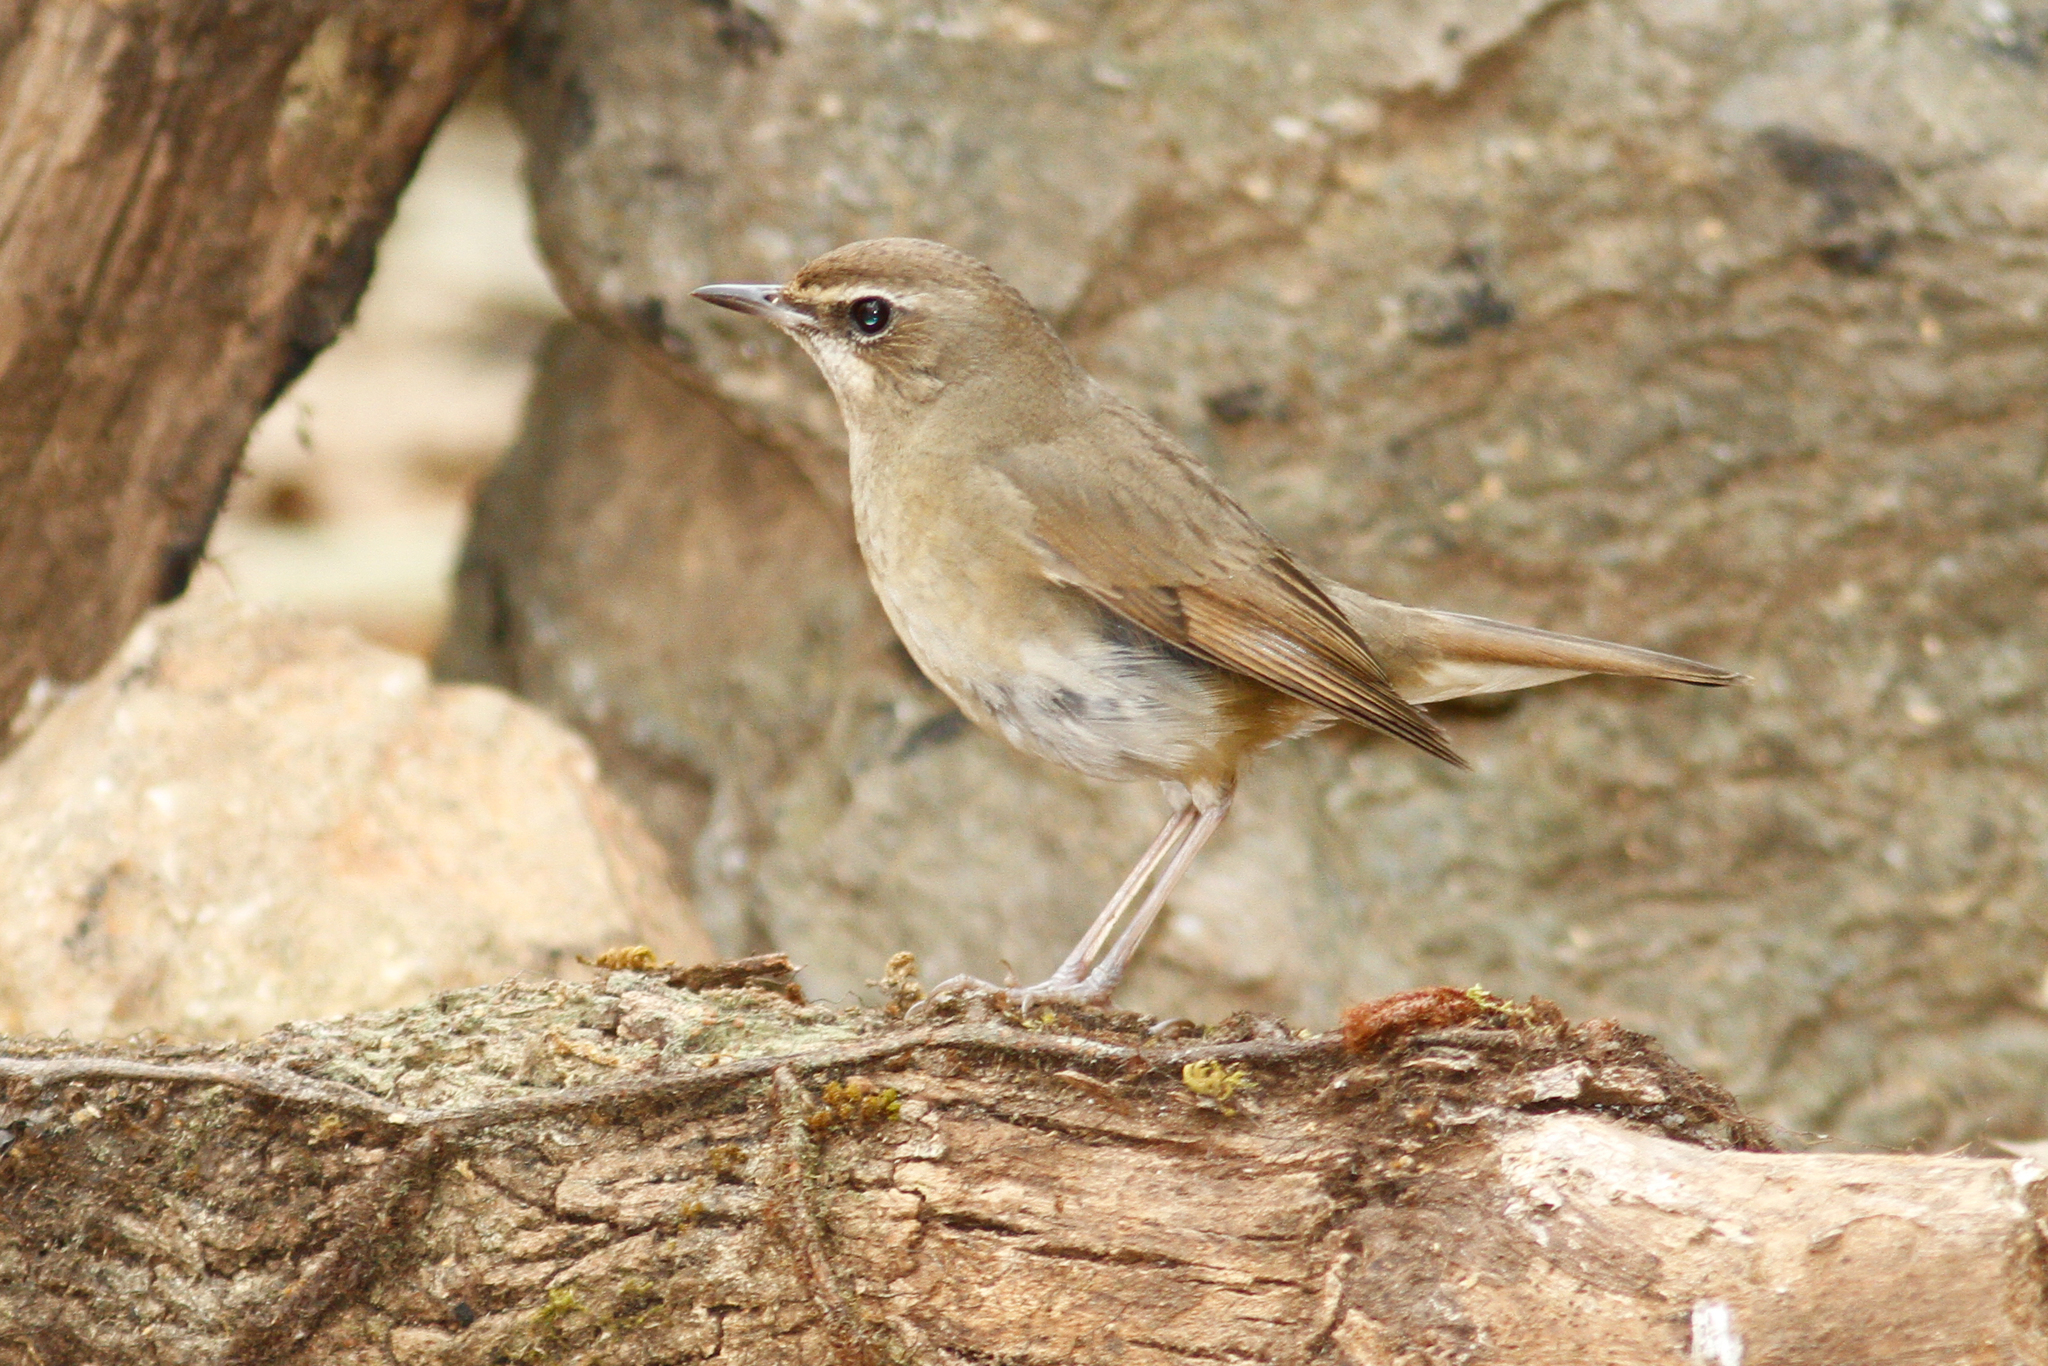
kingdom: Animalia
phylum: Chordata
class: Aves
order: Passeriformes
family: Muscicapidae
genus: Luscinia
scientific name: Luscinia calliope
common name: Siberian rubythroat
